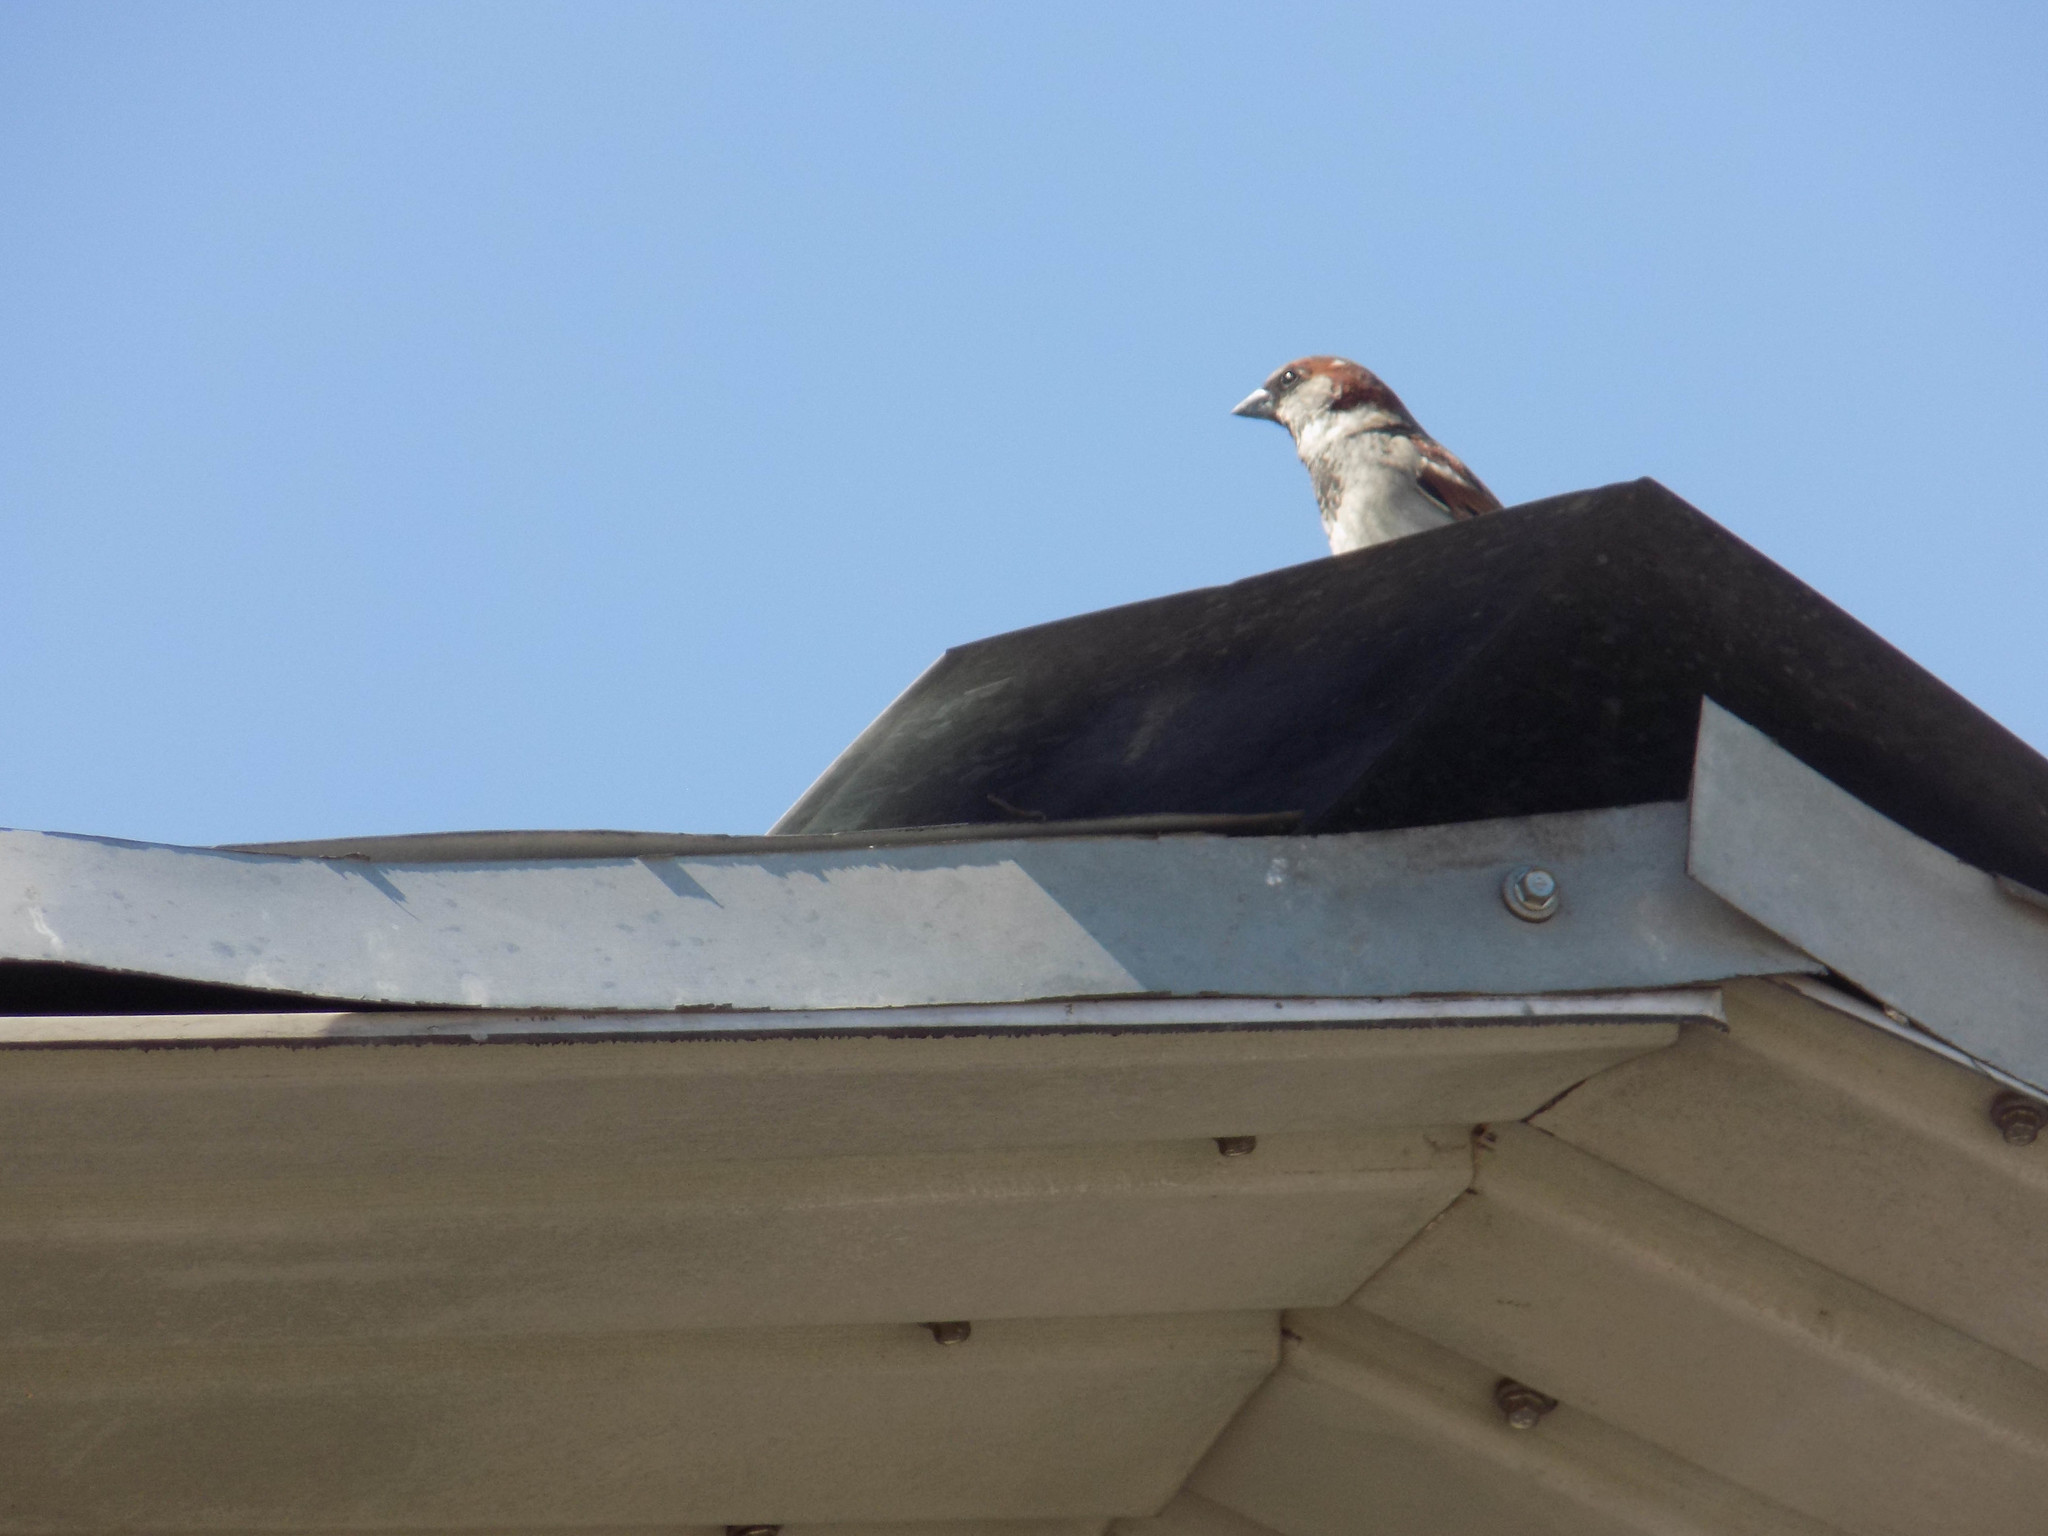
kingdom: Animalia
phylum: Chordata
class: Aves
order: Passeriformes
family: Passeridae
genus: Passer
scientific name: Passer domesticus
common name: House sparrow
